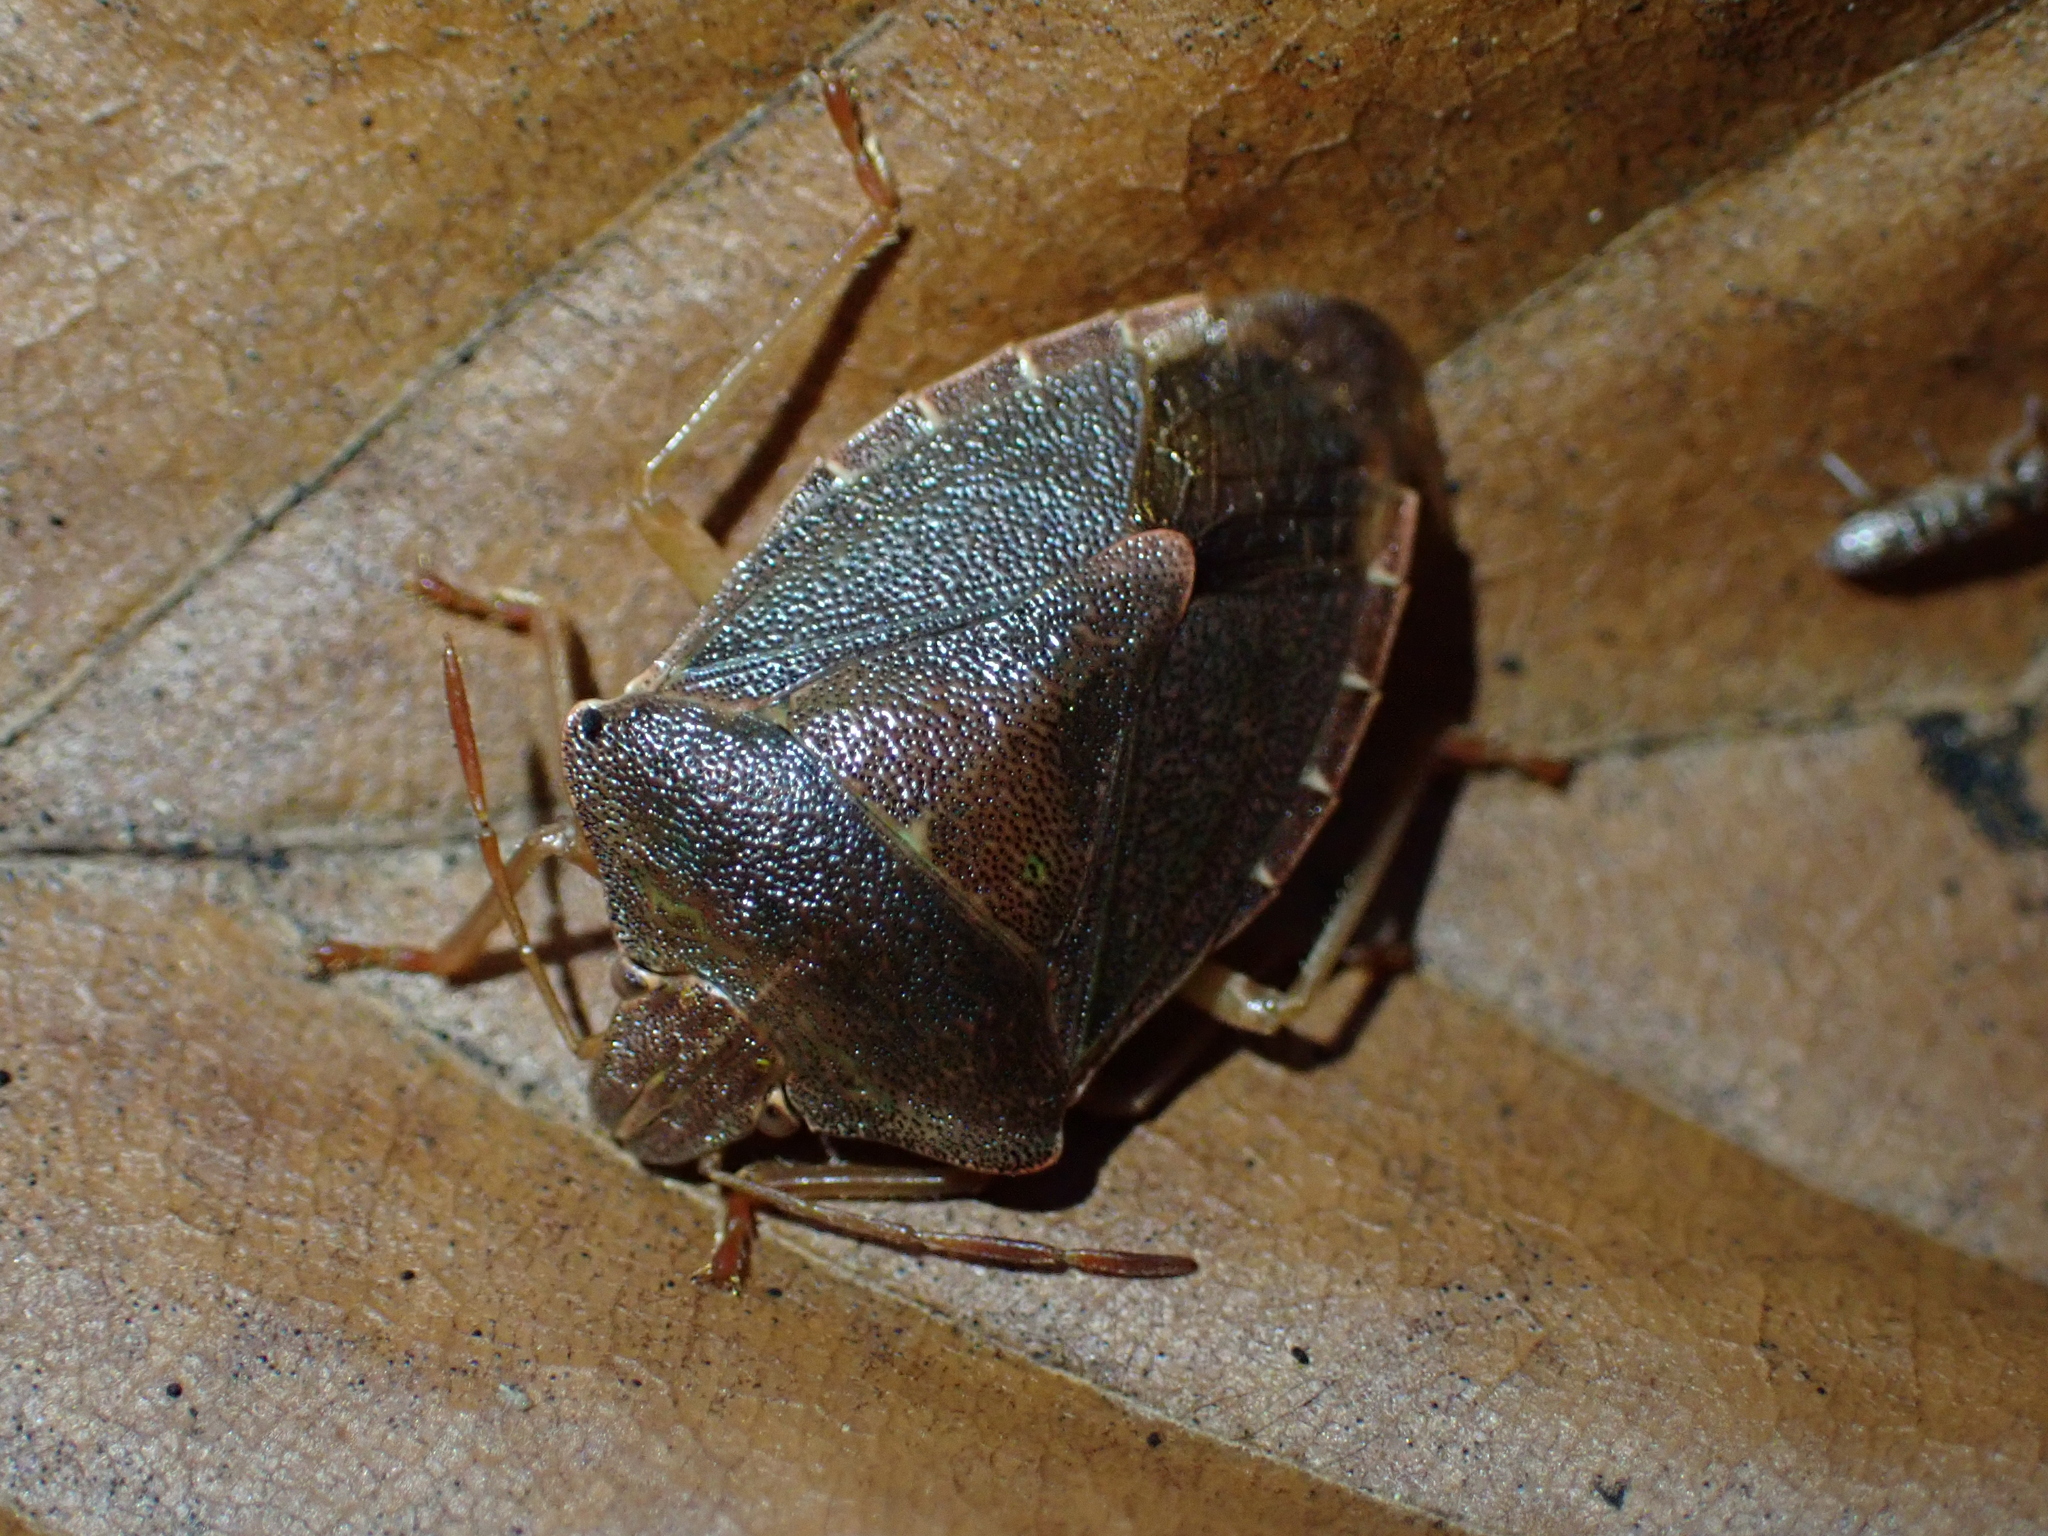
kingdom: Animalia
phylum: Arthropoda
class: Insecta
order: Hemiptera
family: Pentatomidae
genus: Palomena
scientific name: Palomena prasina
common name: Green shieldbug
